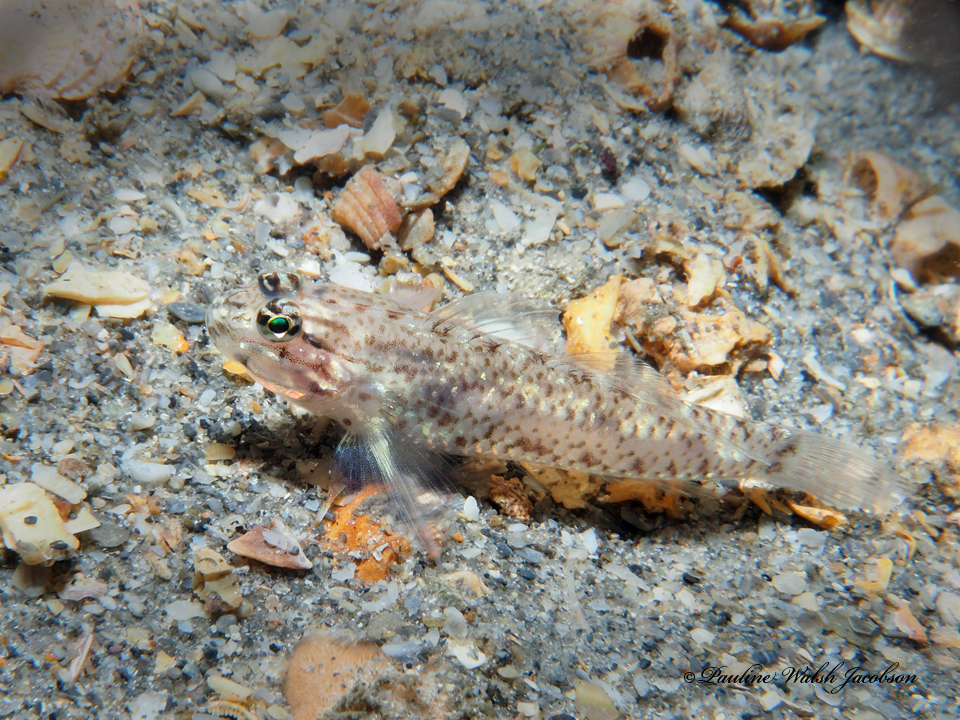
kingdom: Animalia
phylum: Chordata
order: Perciformes
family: Gobiidae
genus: Coryphopterus
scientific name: Coryphopterus dicrus
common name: Colon goby
